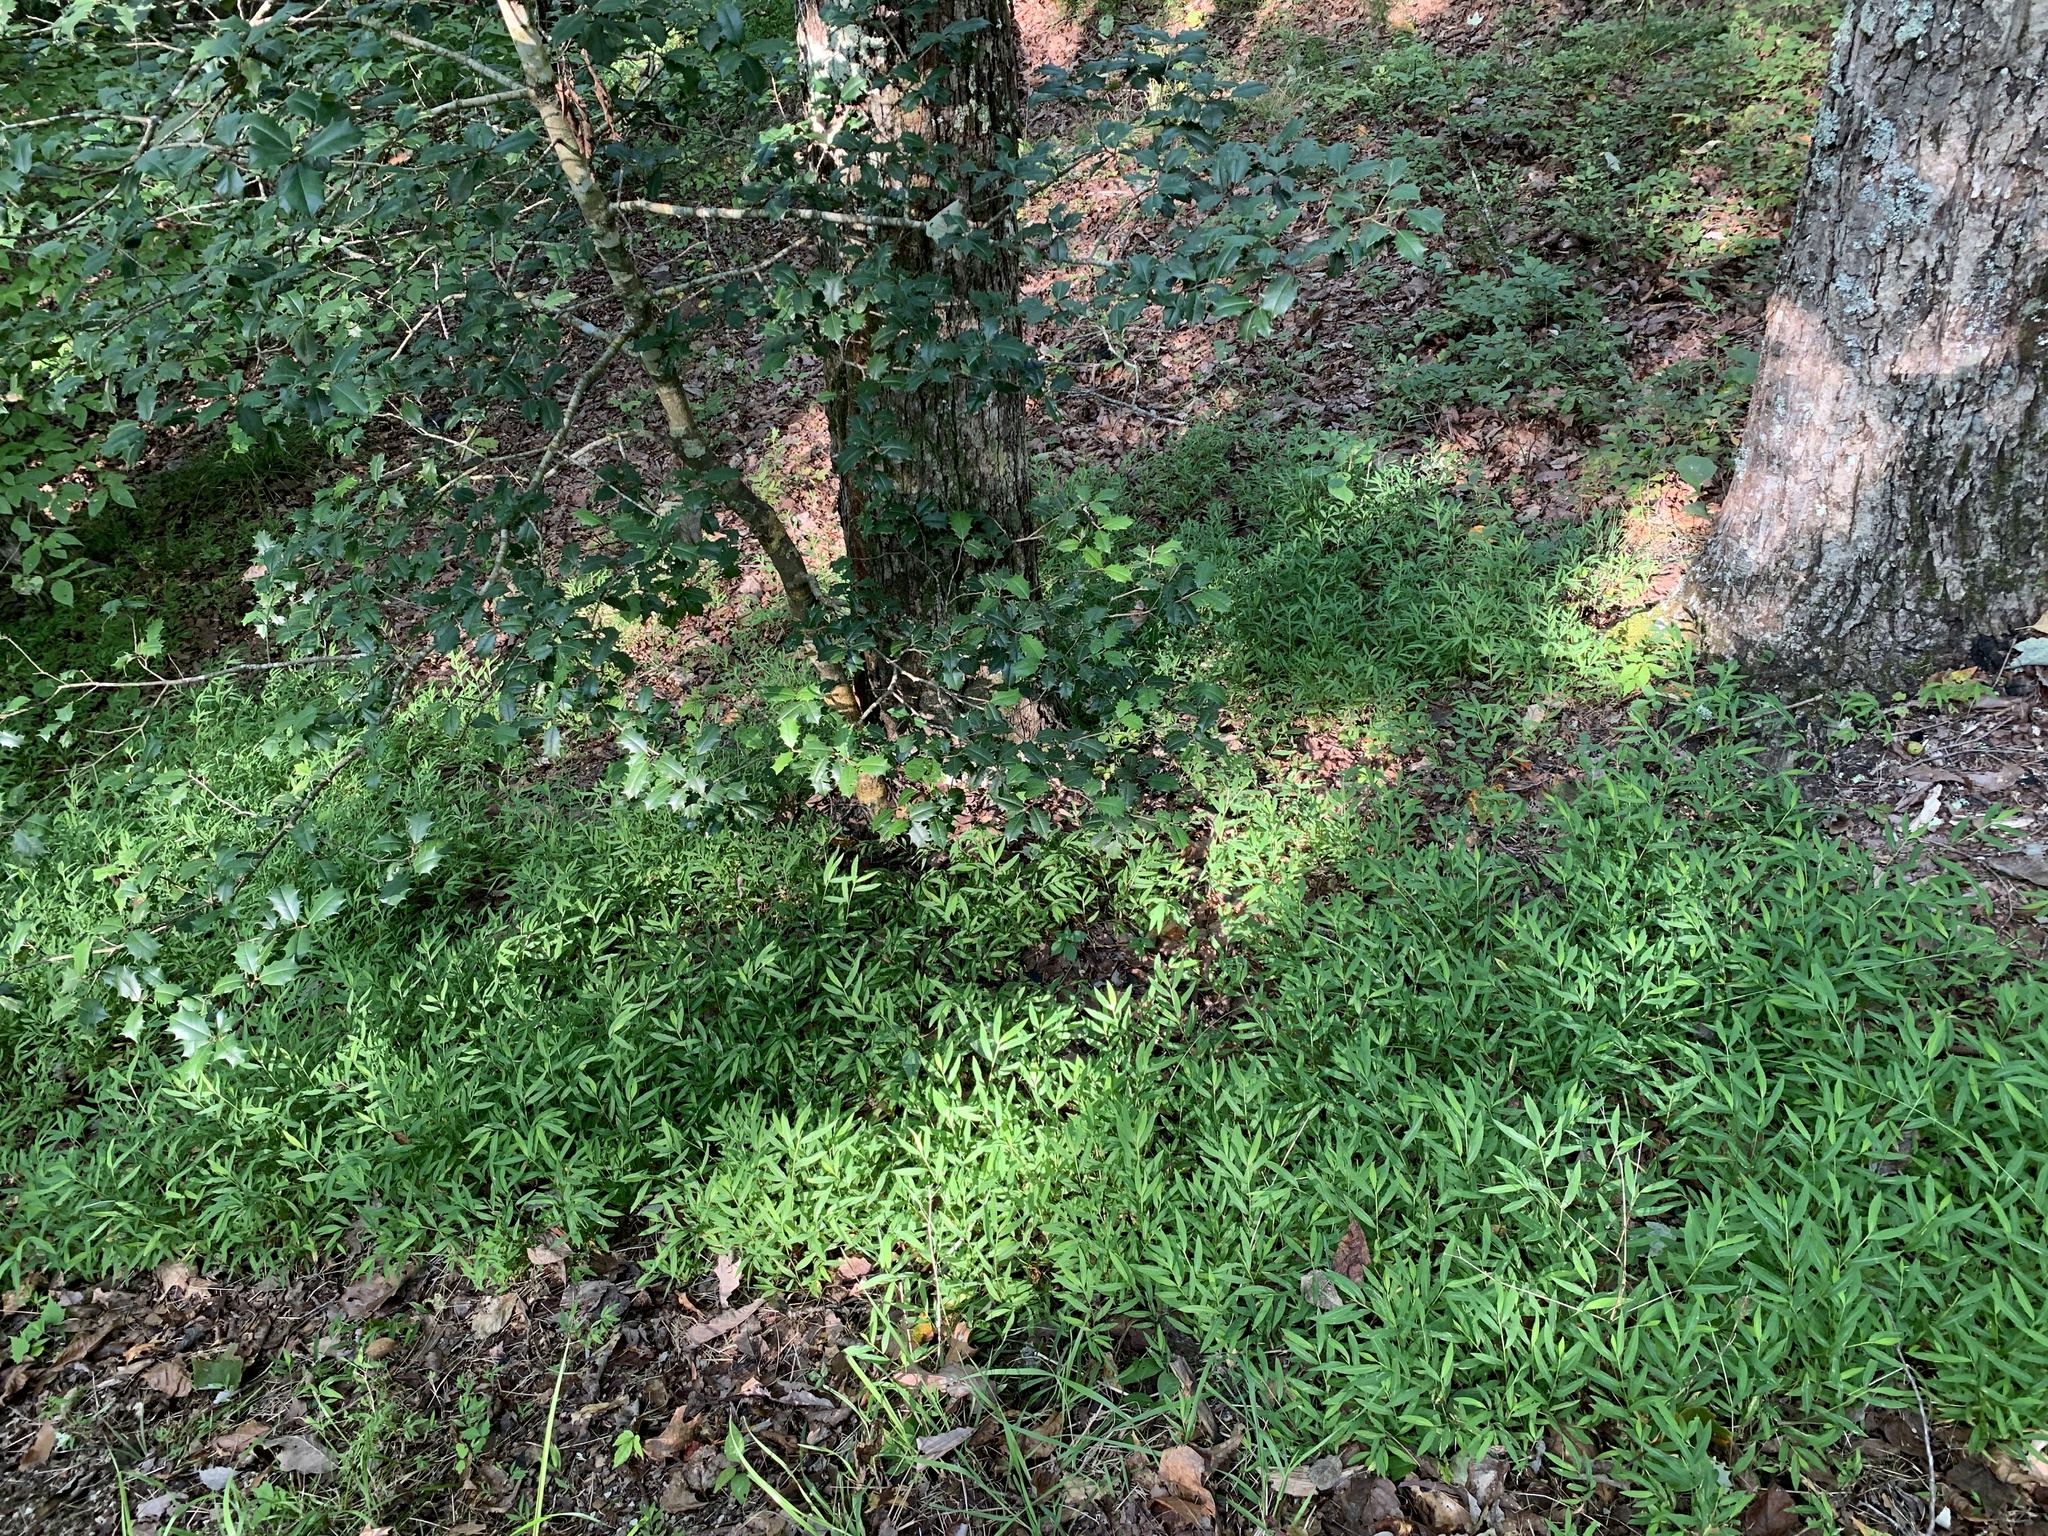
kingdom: Plantae
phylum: Tracheophyta
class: Liliopsida
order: Poales
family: Poaceae
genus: Microstegium
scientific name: Microstegium vimineum
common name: Japanese stiltgrass
